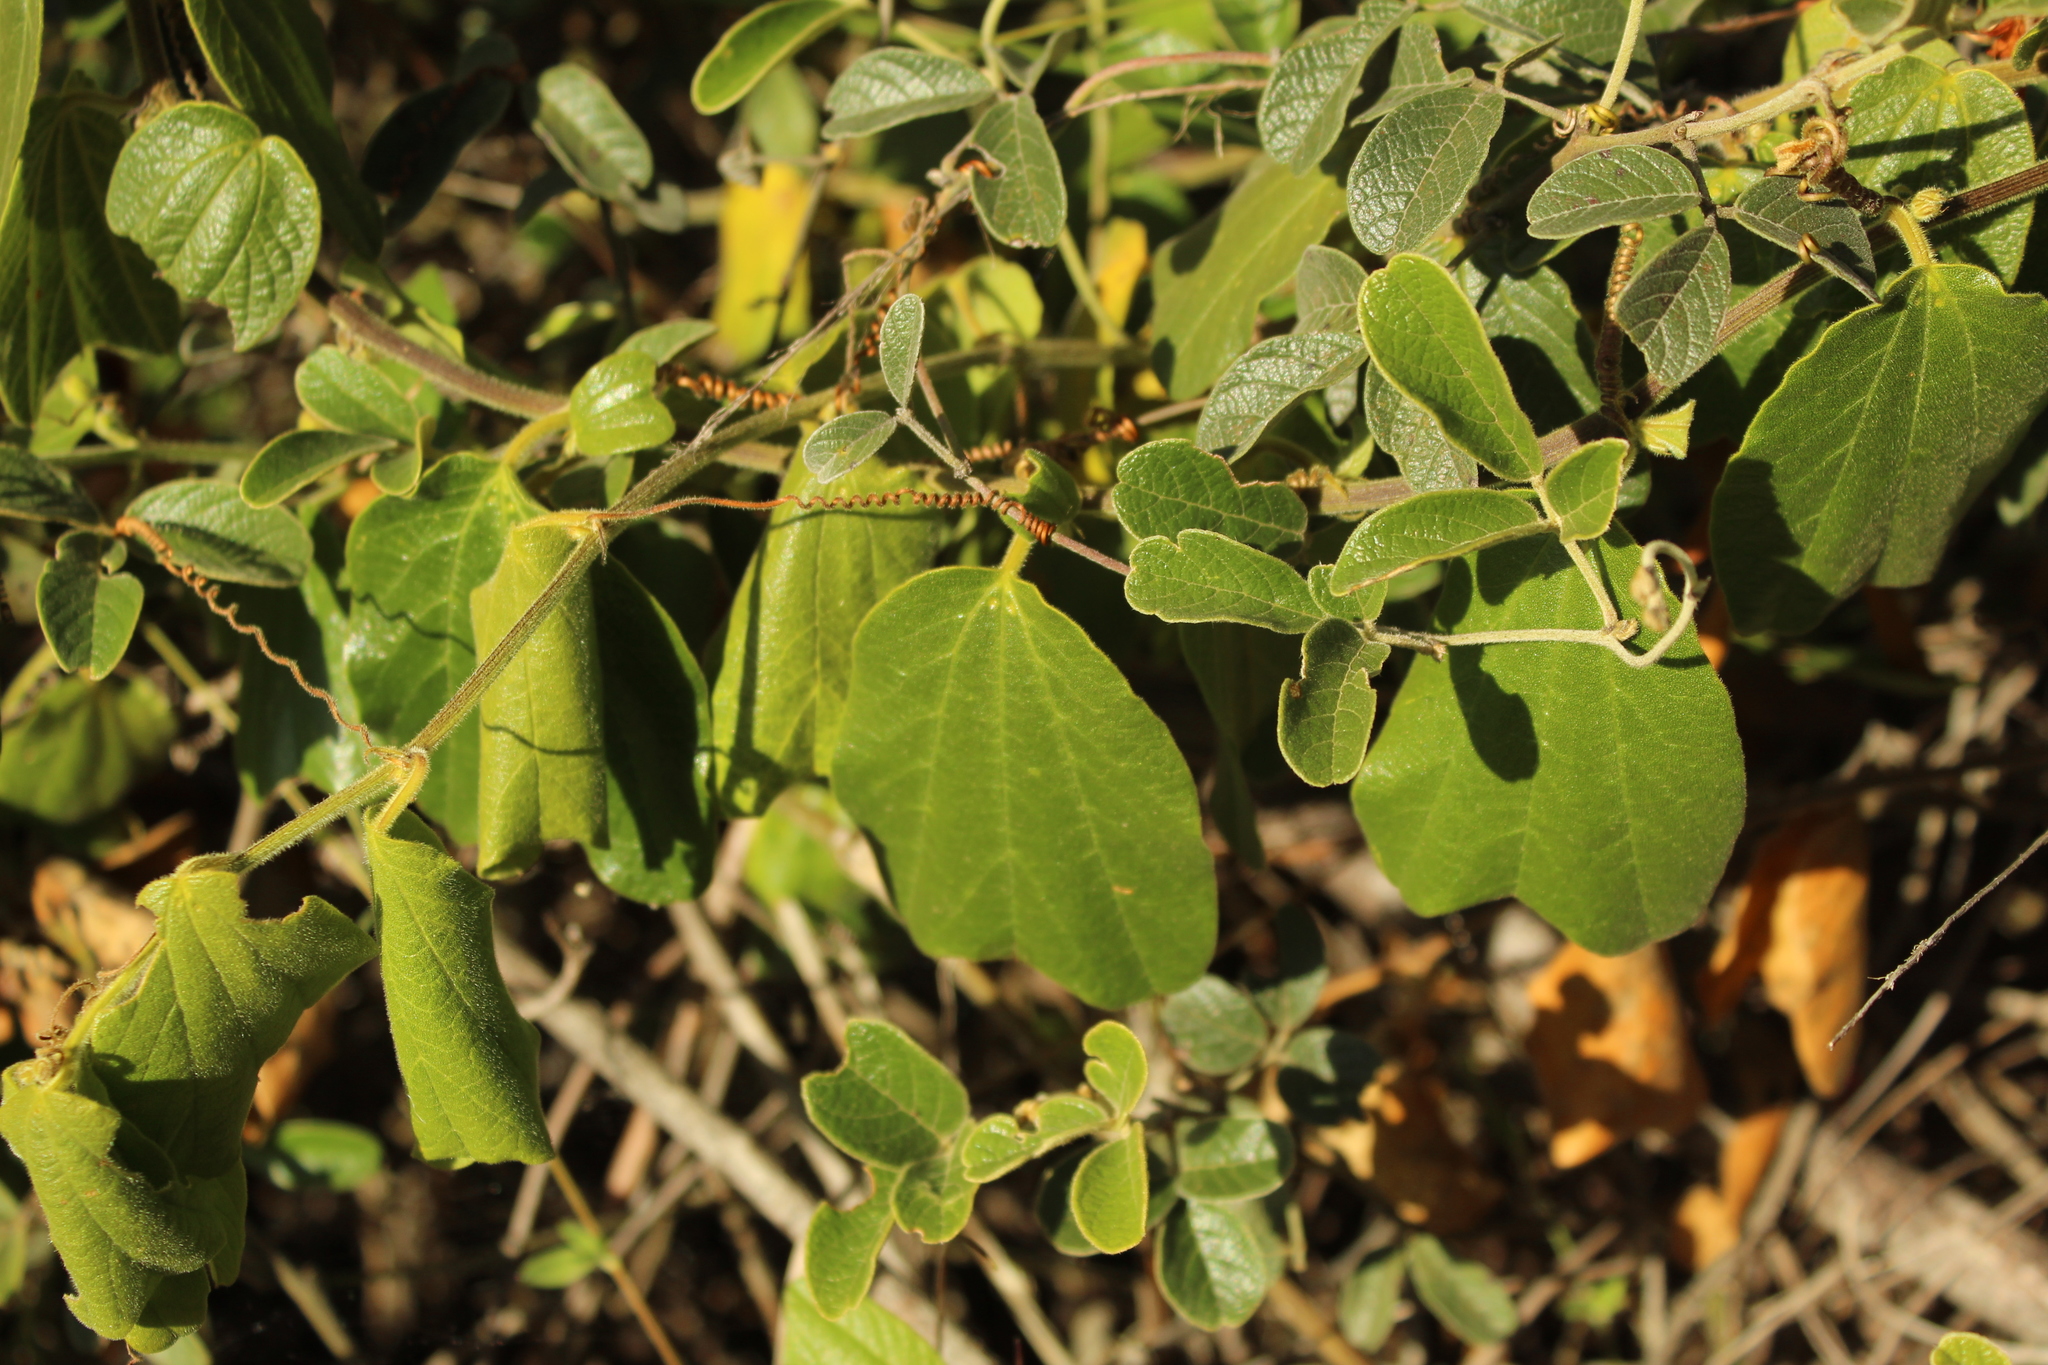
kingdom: Plantae
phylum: Tracheophyta
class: Magnoliopsida
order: Malpighiales
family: Passifloraceae
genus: Passiflora
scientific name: Passiflora bogotensis
